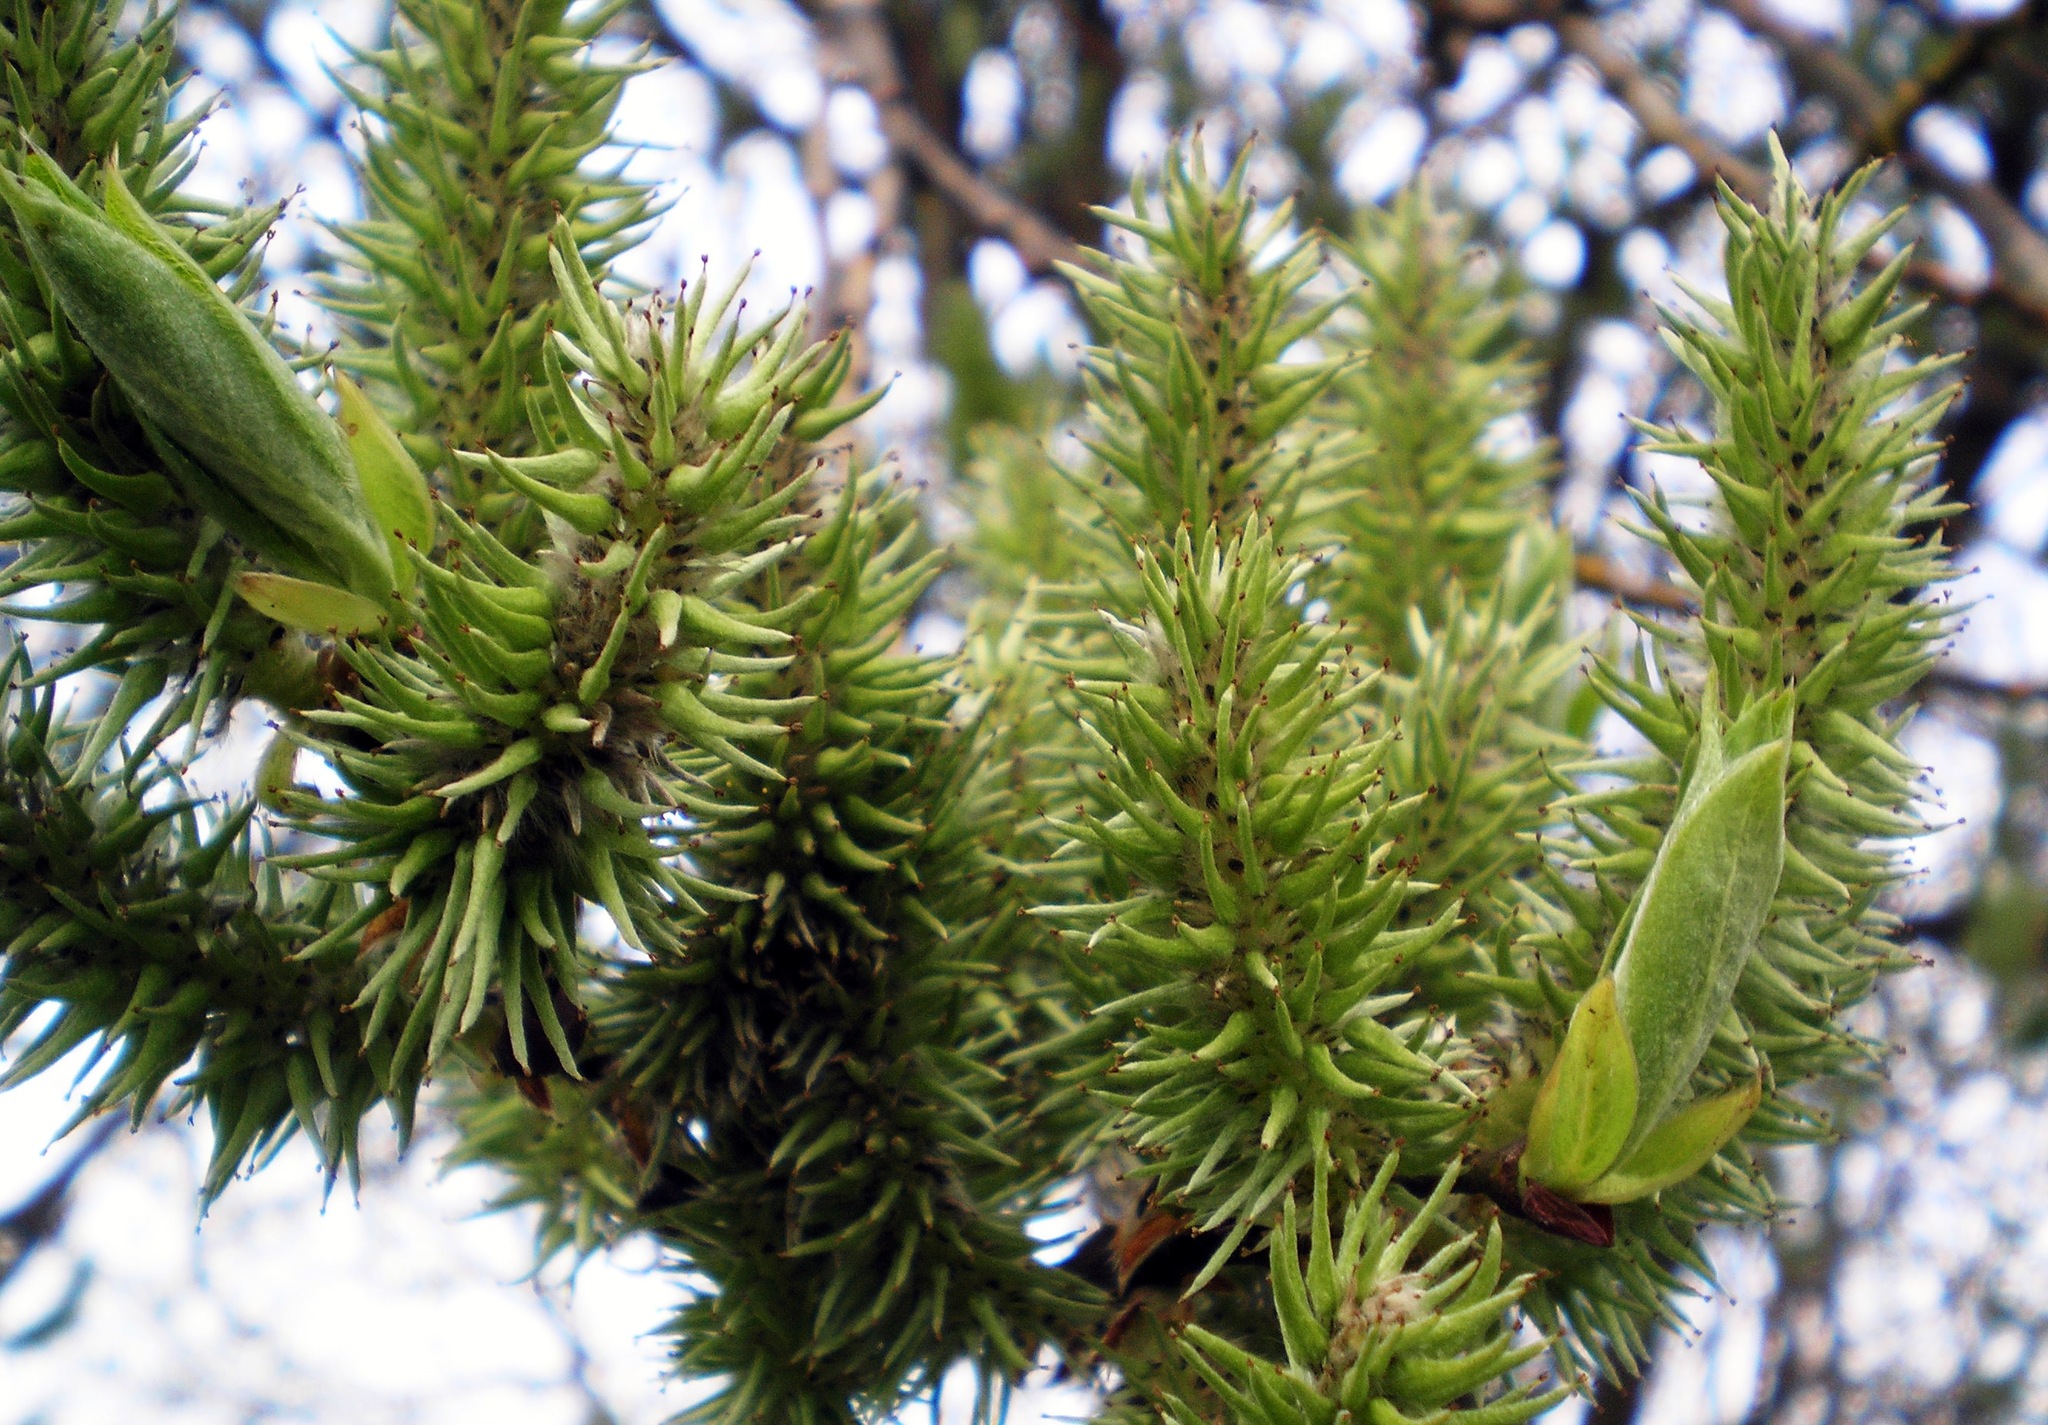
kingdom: Plantae
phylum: Tracheophyta
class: Magnoliopsida
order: Malpighiales
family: Salicaceae
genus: Salix
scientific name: Salix caprea
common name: Goat willow
